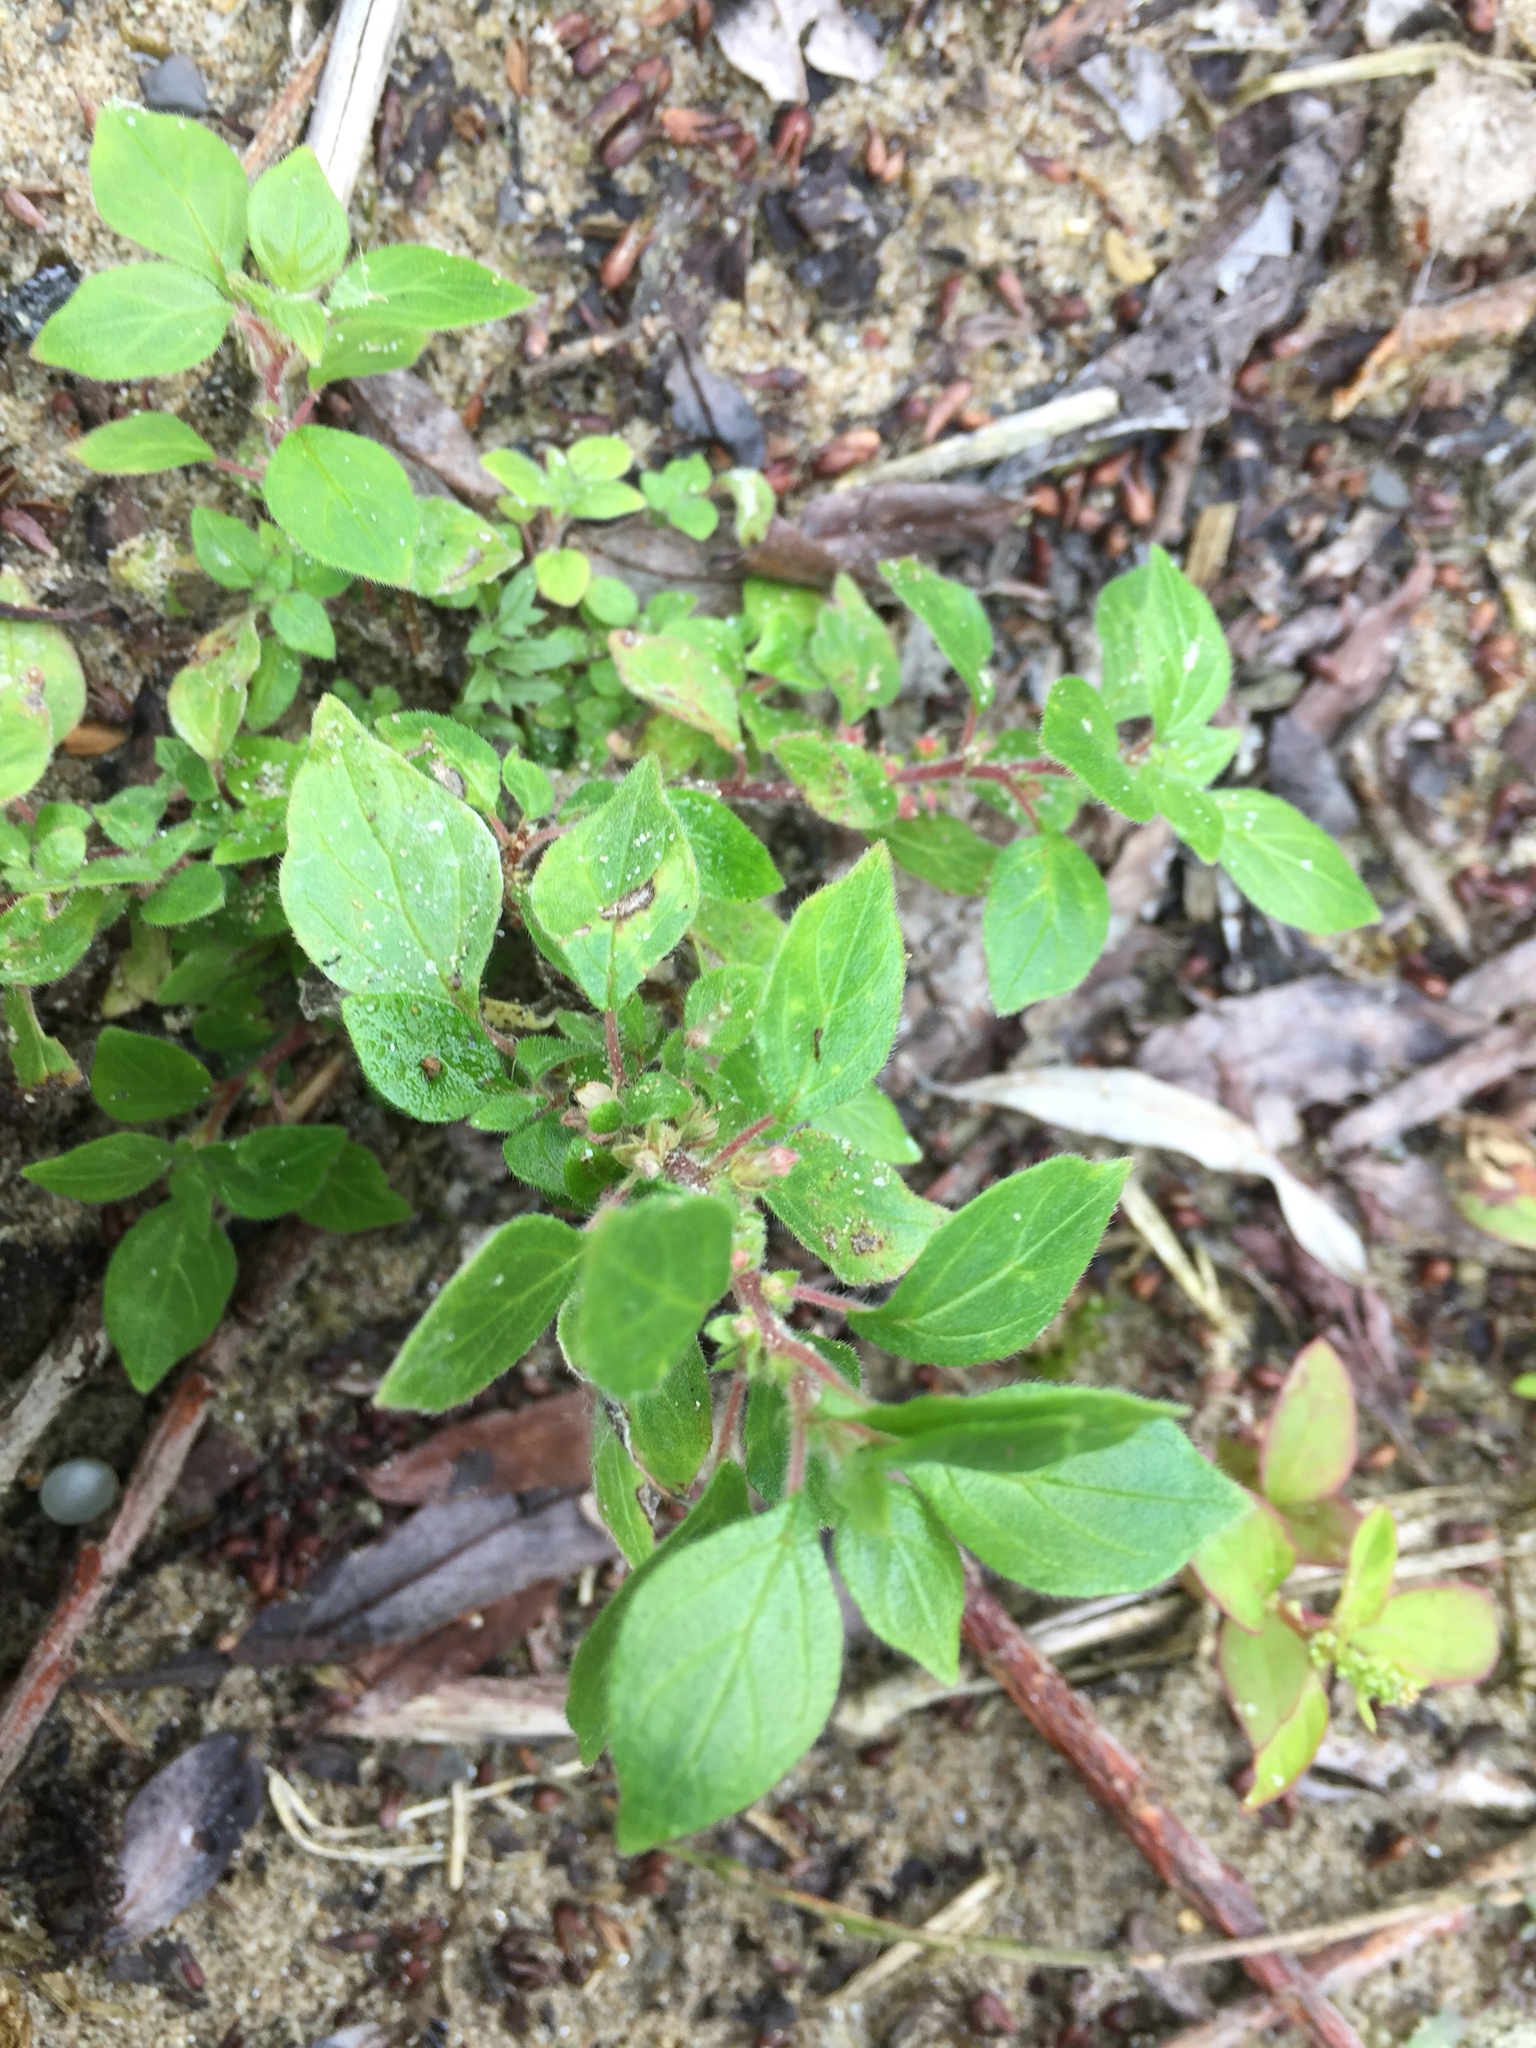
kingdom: Plantae
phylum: Tracheophyta
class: Magnoliopsida
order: Rosales
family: Urticaceae
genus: Parietaria
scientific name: Parietaria judaica
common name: Pellitory-of-the-wall
